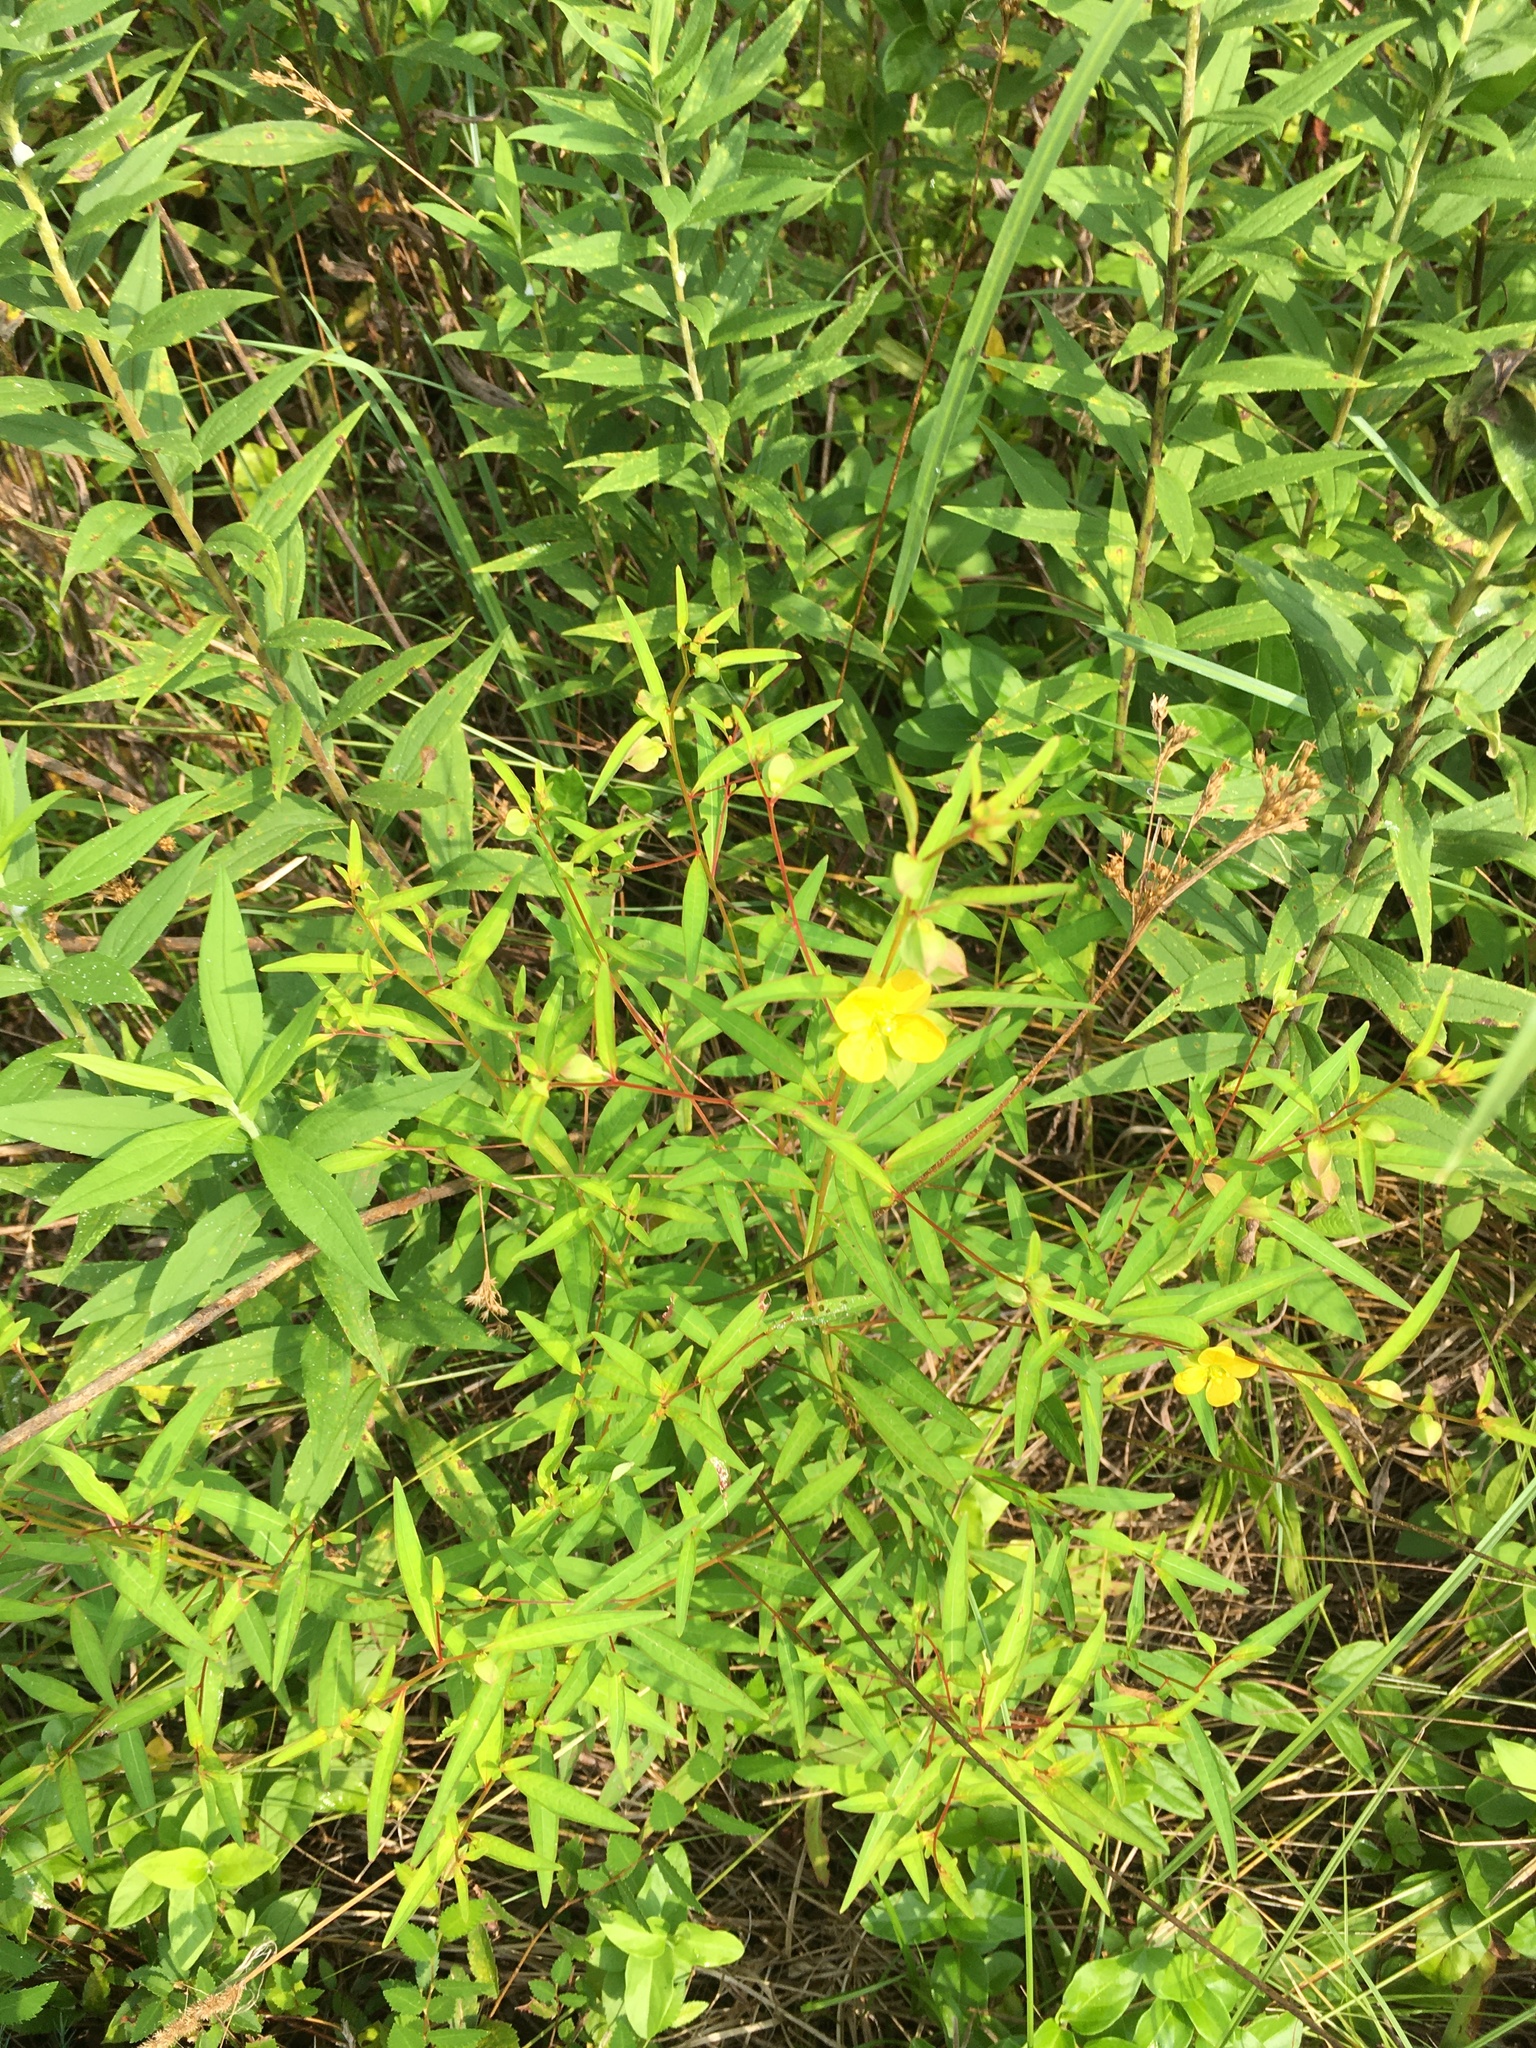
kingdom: Plantae
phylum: Tracheophyta
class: Magnoliopsida
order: Myrtales
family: Onagraceae
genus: Ludwigia
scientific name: Ludwigia alternifolia
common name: Rattlebox
